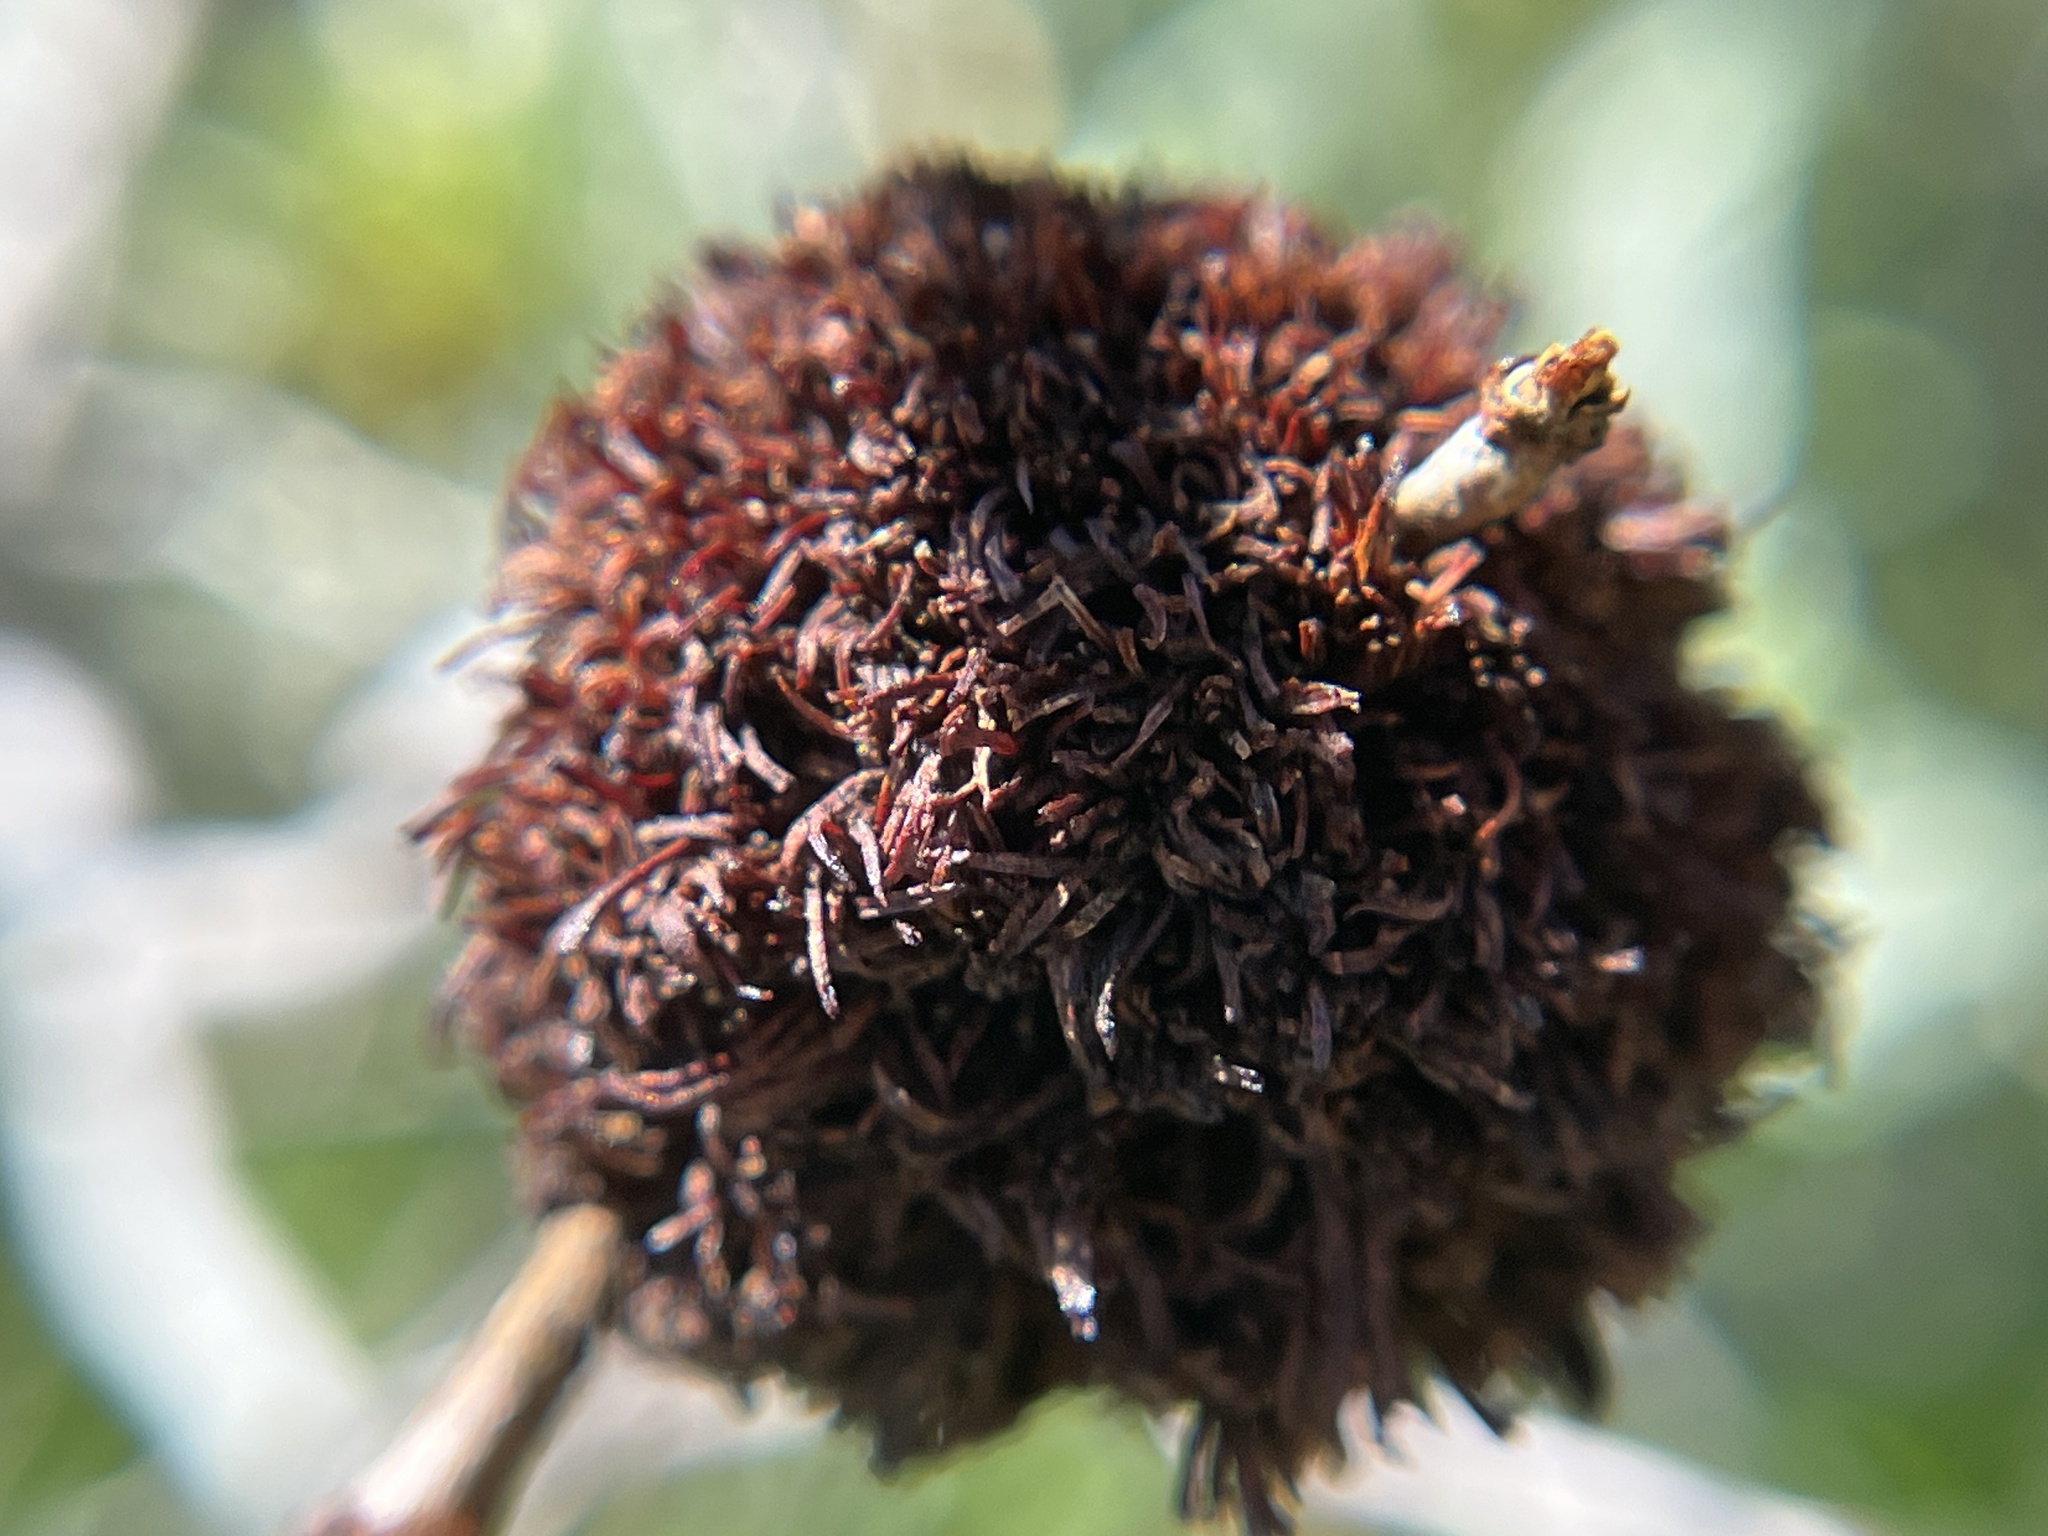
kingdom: Animalia
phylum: Arthropoda
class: Insecta
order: Diptera
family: Cecidomyiidae
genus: Asphondylia
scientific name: Asphondylia auripila
